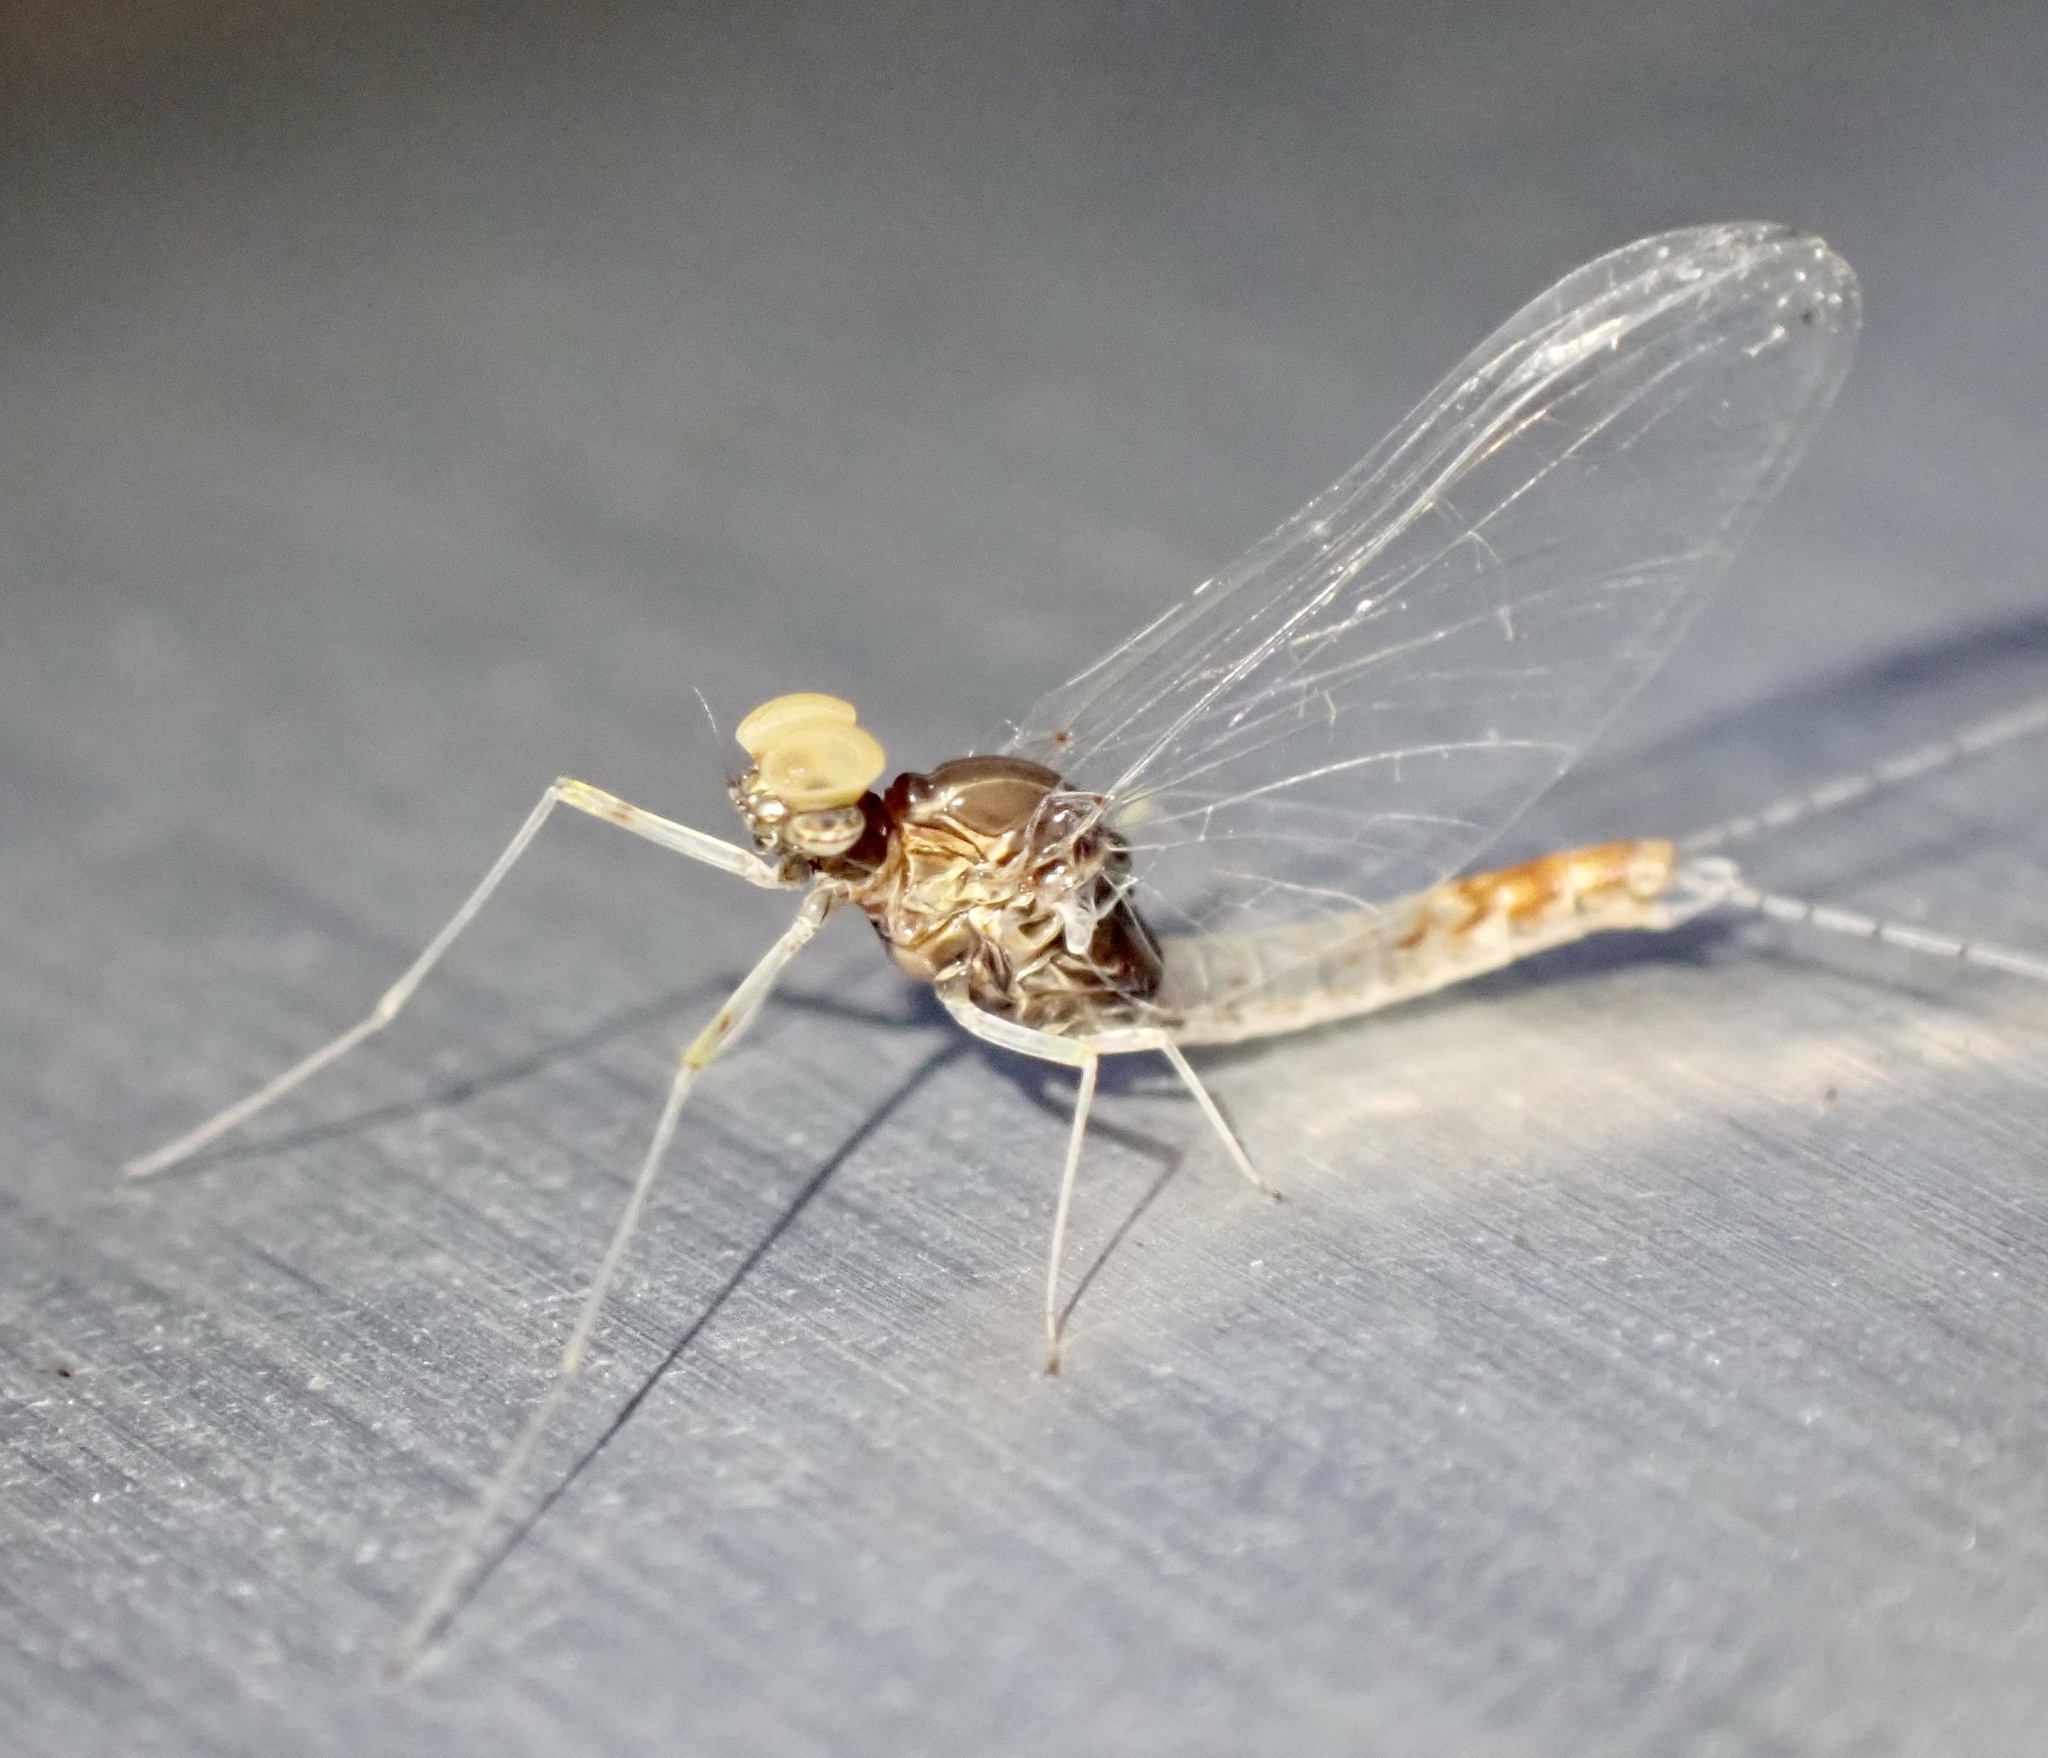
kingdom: Animalia
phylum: Arthropoda
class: Insecta
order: Ephemeroptera
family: Baetidae
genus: Cloeon
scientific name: Cloeon dipterum
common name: Pond olive
